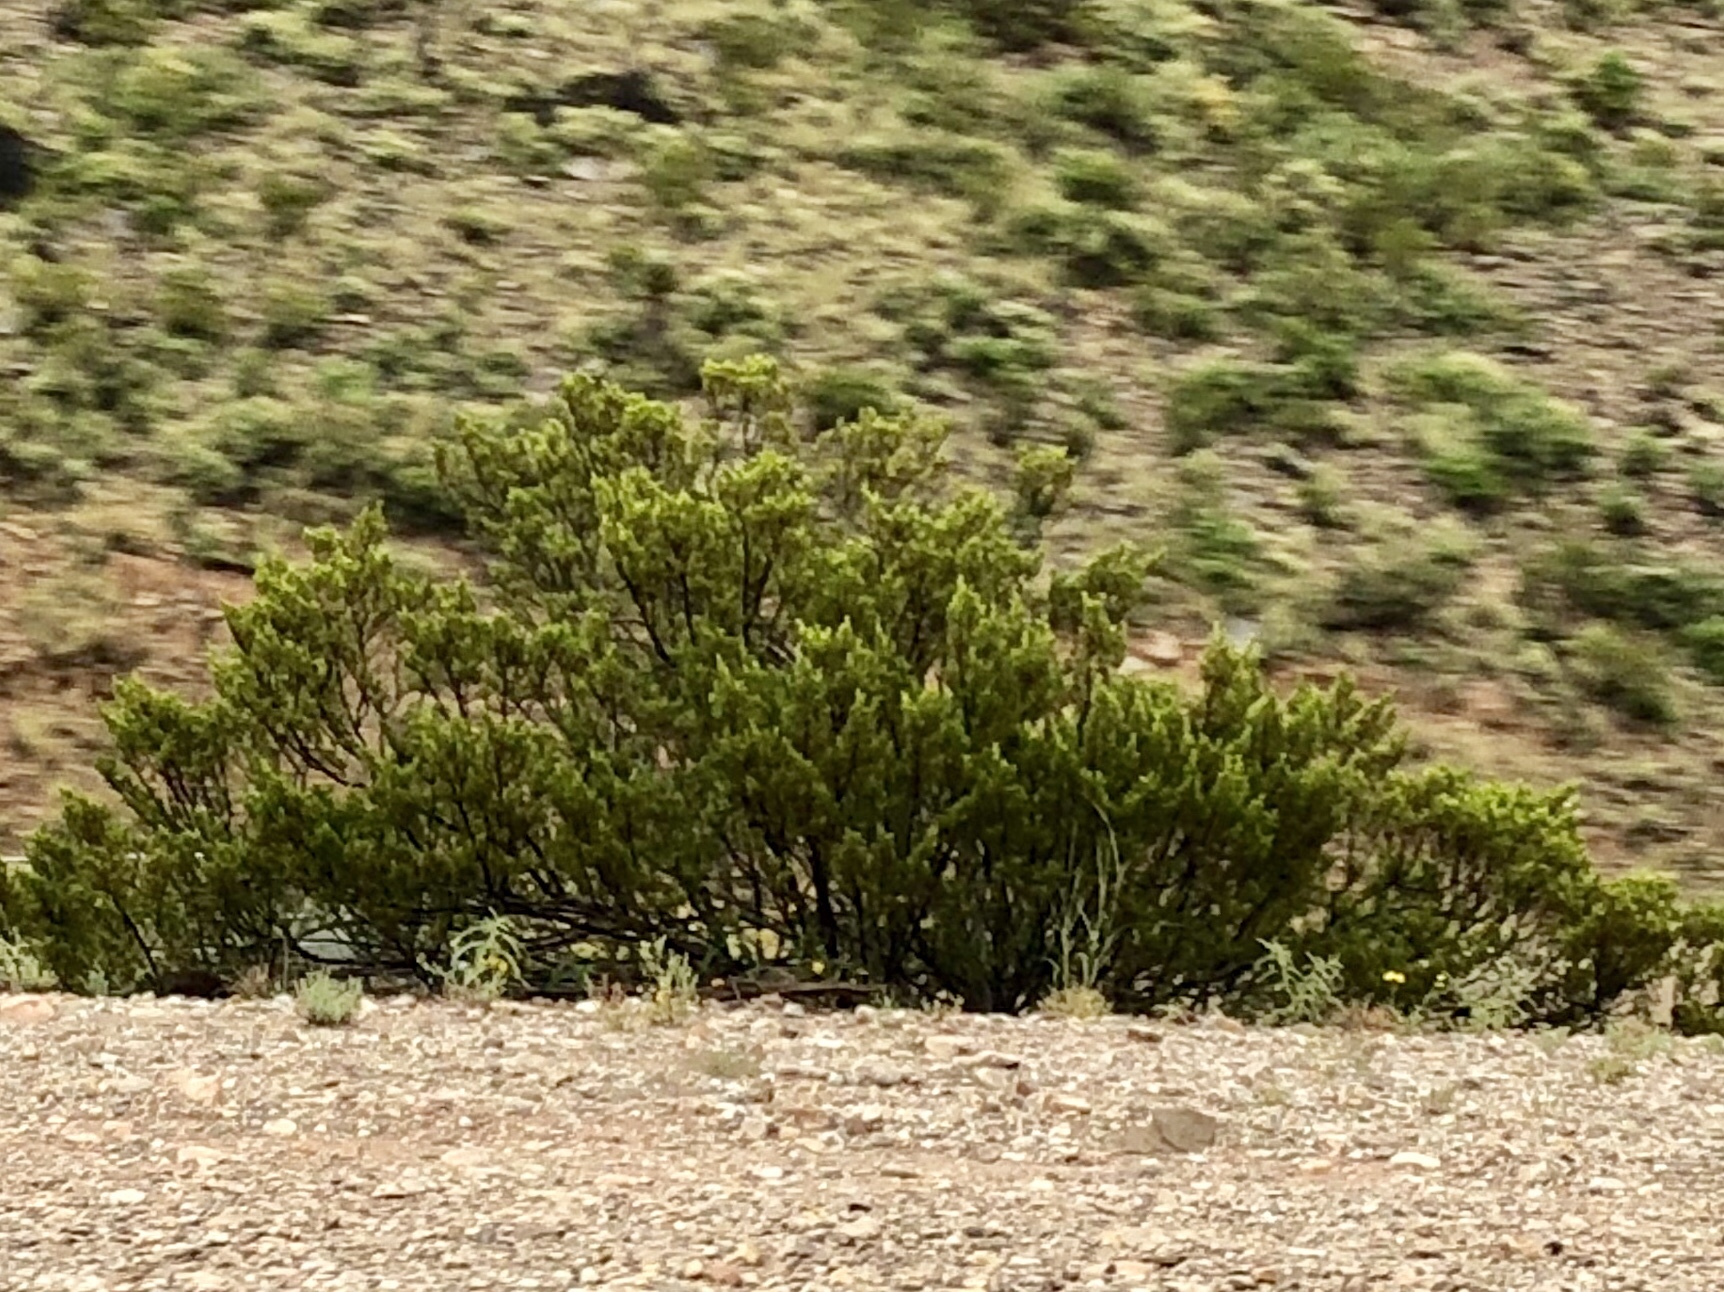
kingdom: Plantae
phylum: Tracheophyta
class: Magnoliopsida
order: Zygophyllales
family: Zygophyllaceae
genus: Larrea
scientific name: Larrea tridentata
